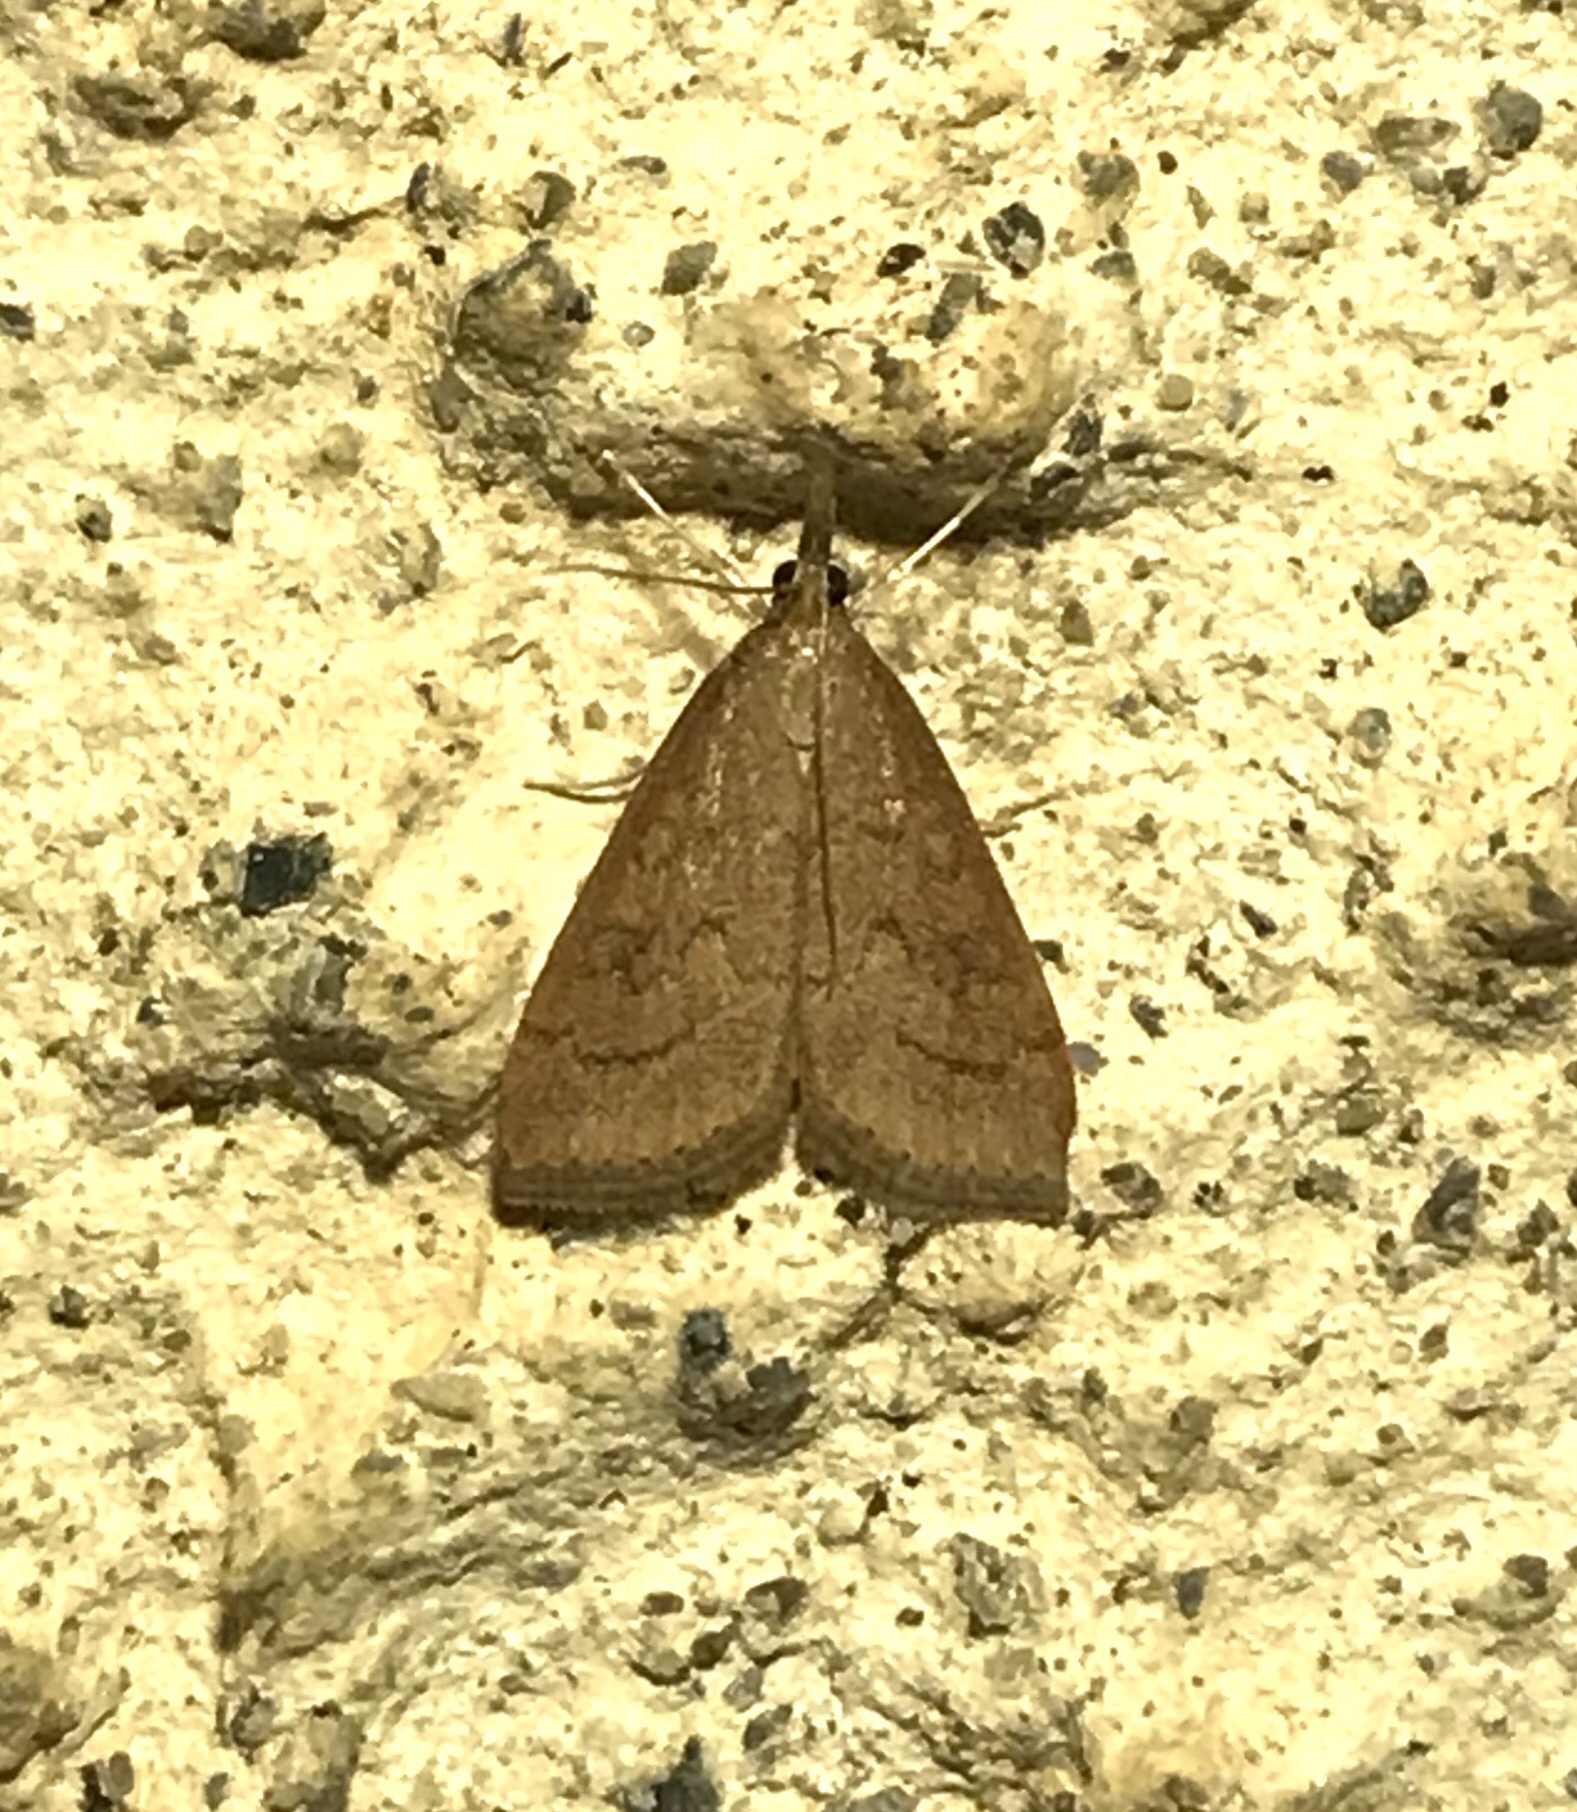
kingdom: Animalia
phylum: Arthropoda
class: Insecta
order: Lepidoptera
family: Crambidae
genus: Udea
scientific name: Udea rubigalis
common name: Celery leaftier moth
